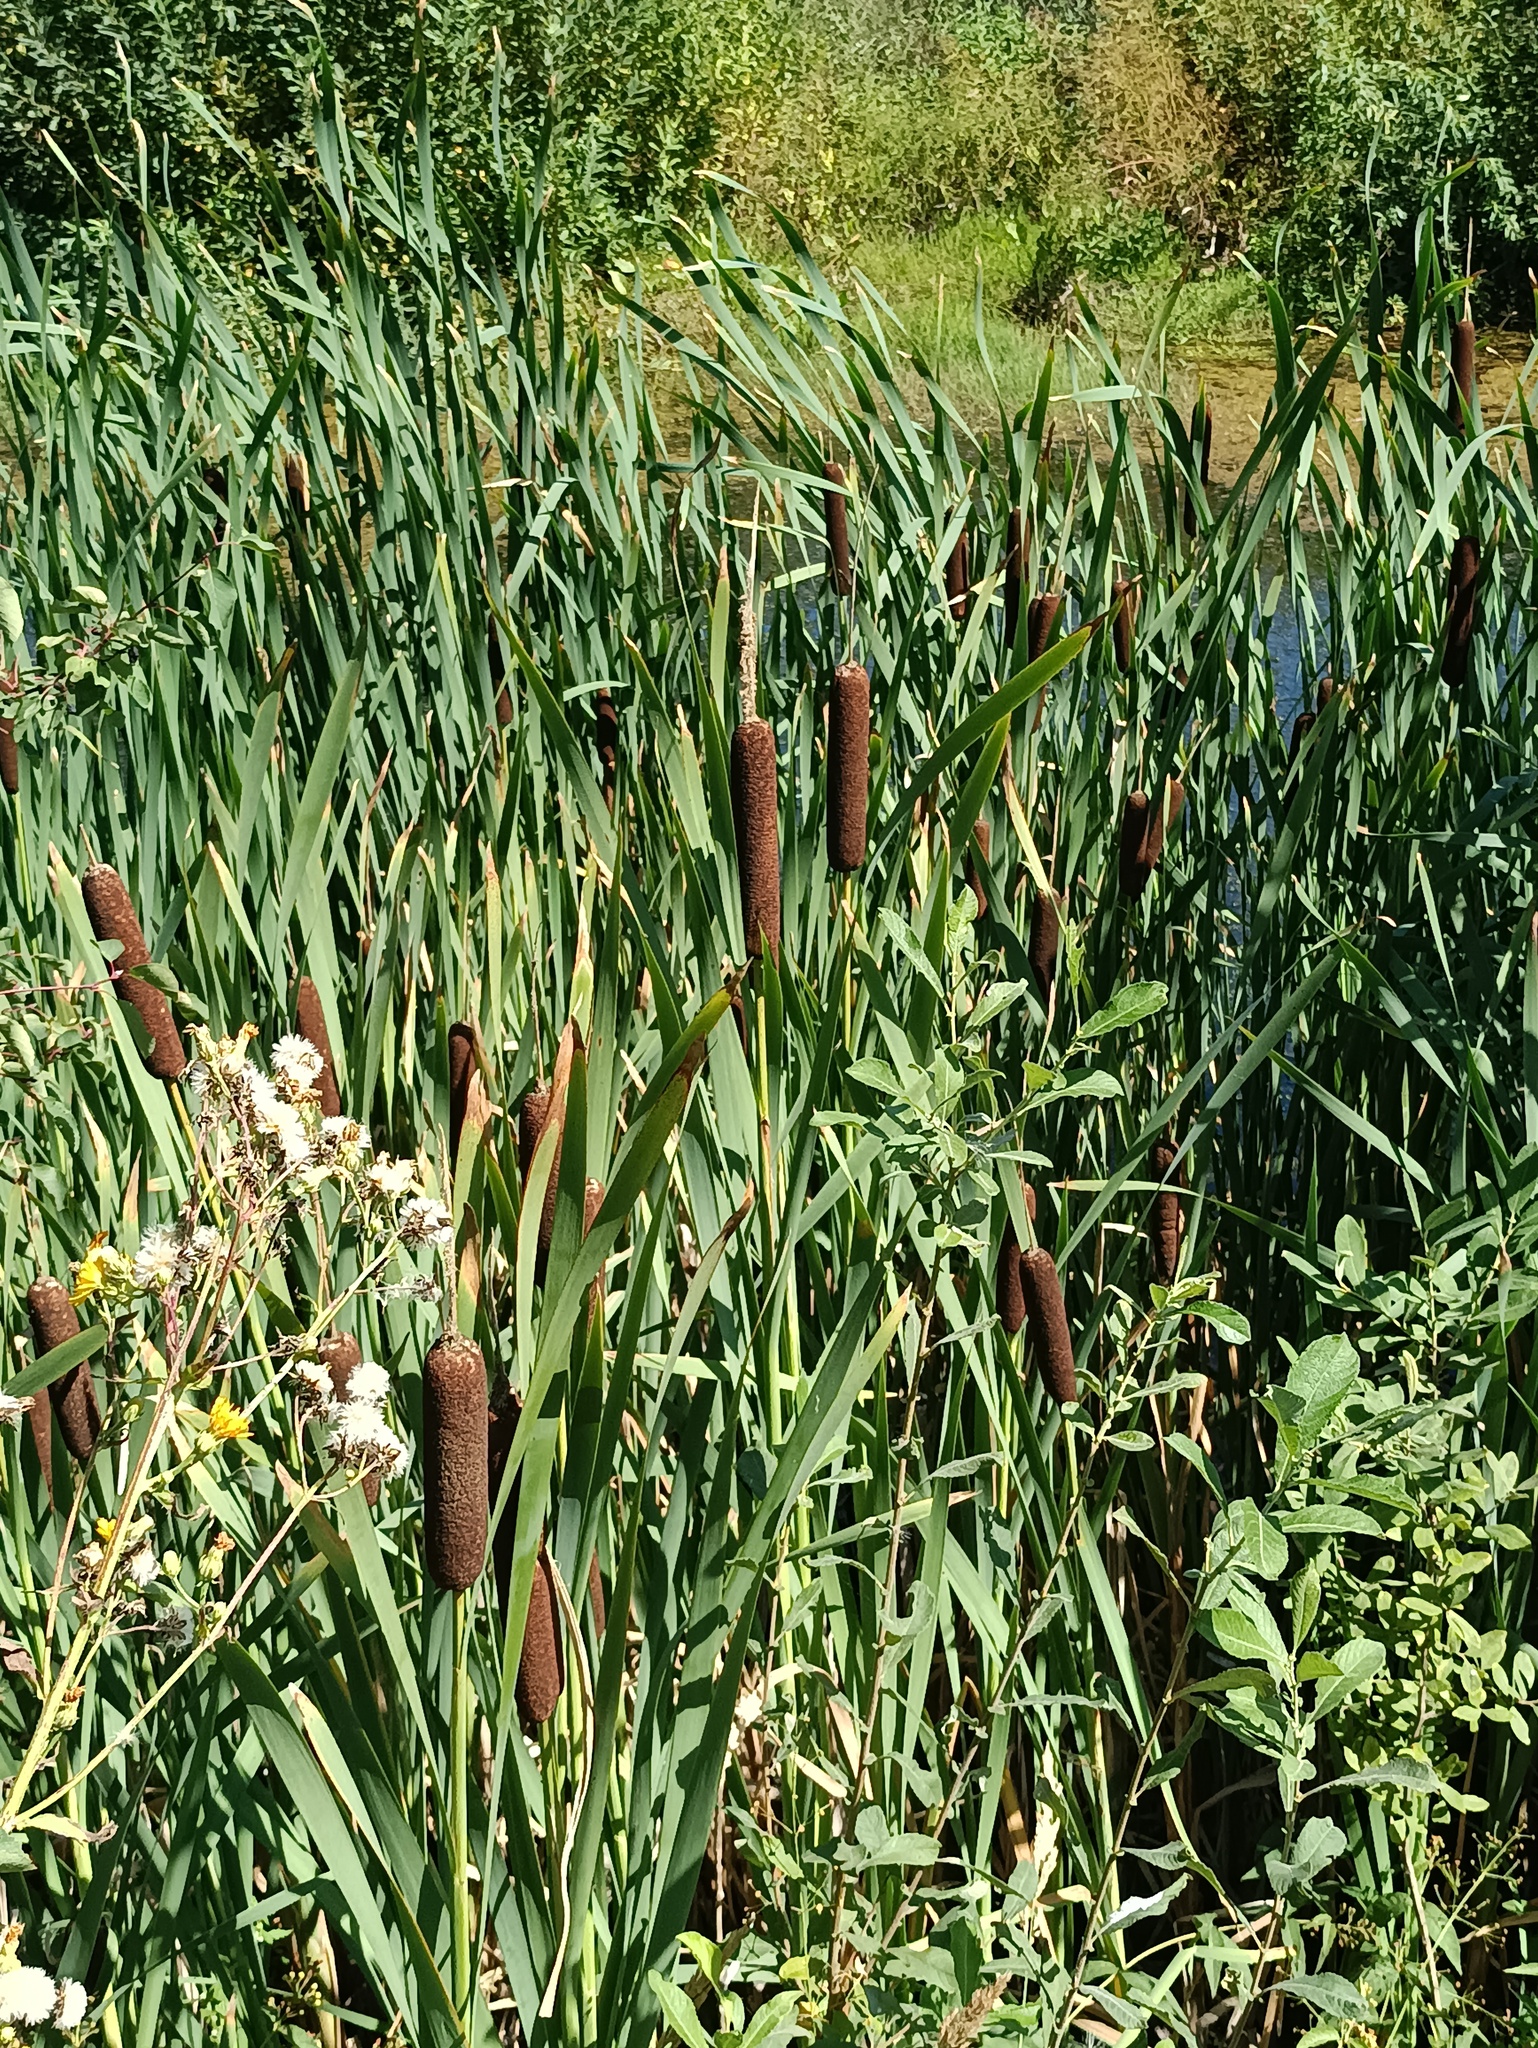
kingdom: Plantae
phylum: Tracheophyta
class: Liliopsida
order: Poales
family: Typhaceae
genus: Typha
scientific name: Typha latifolia
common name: Broadleaf cattail
